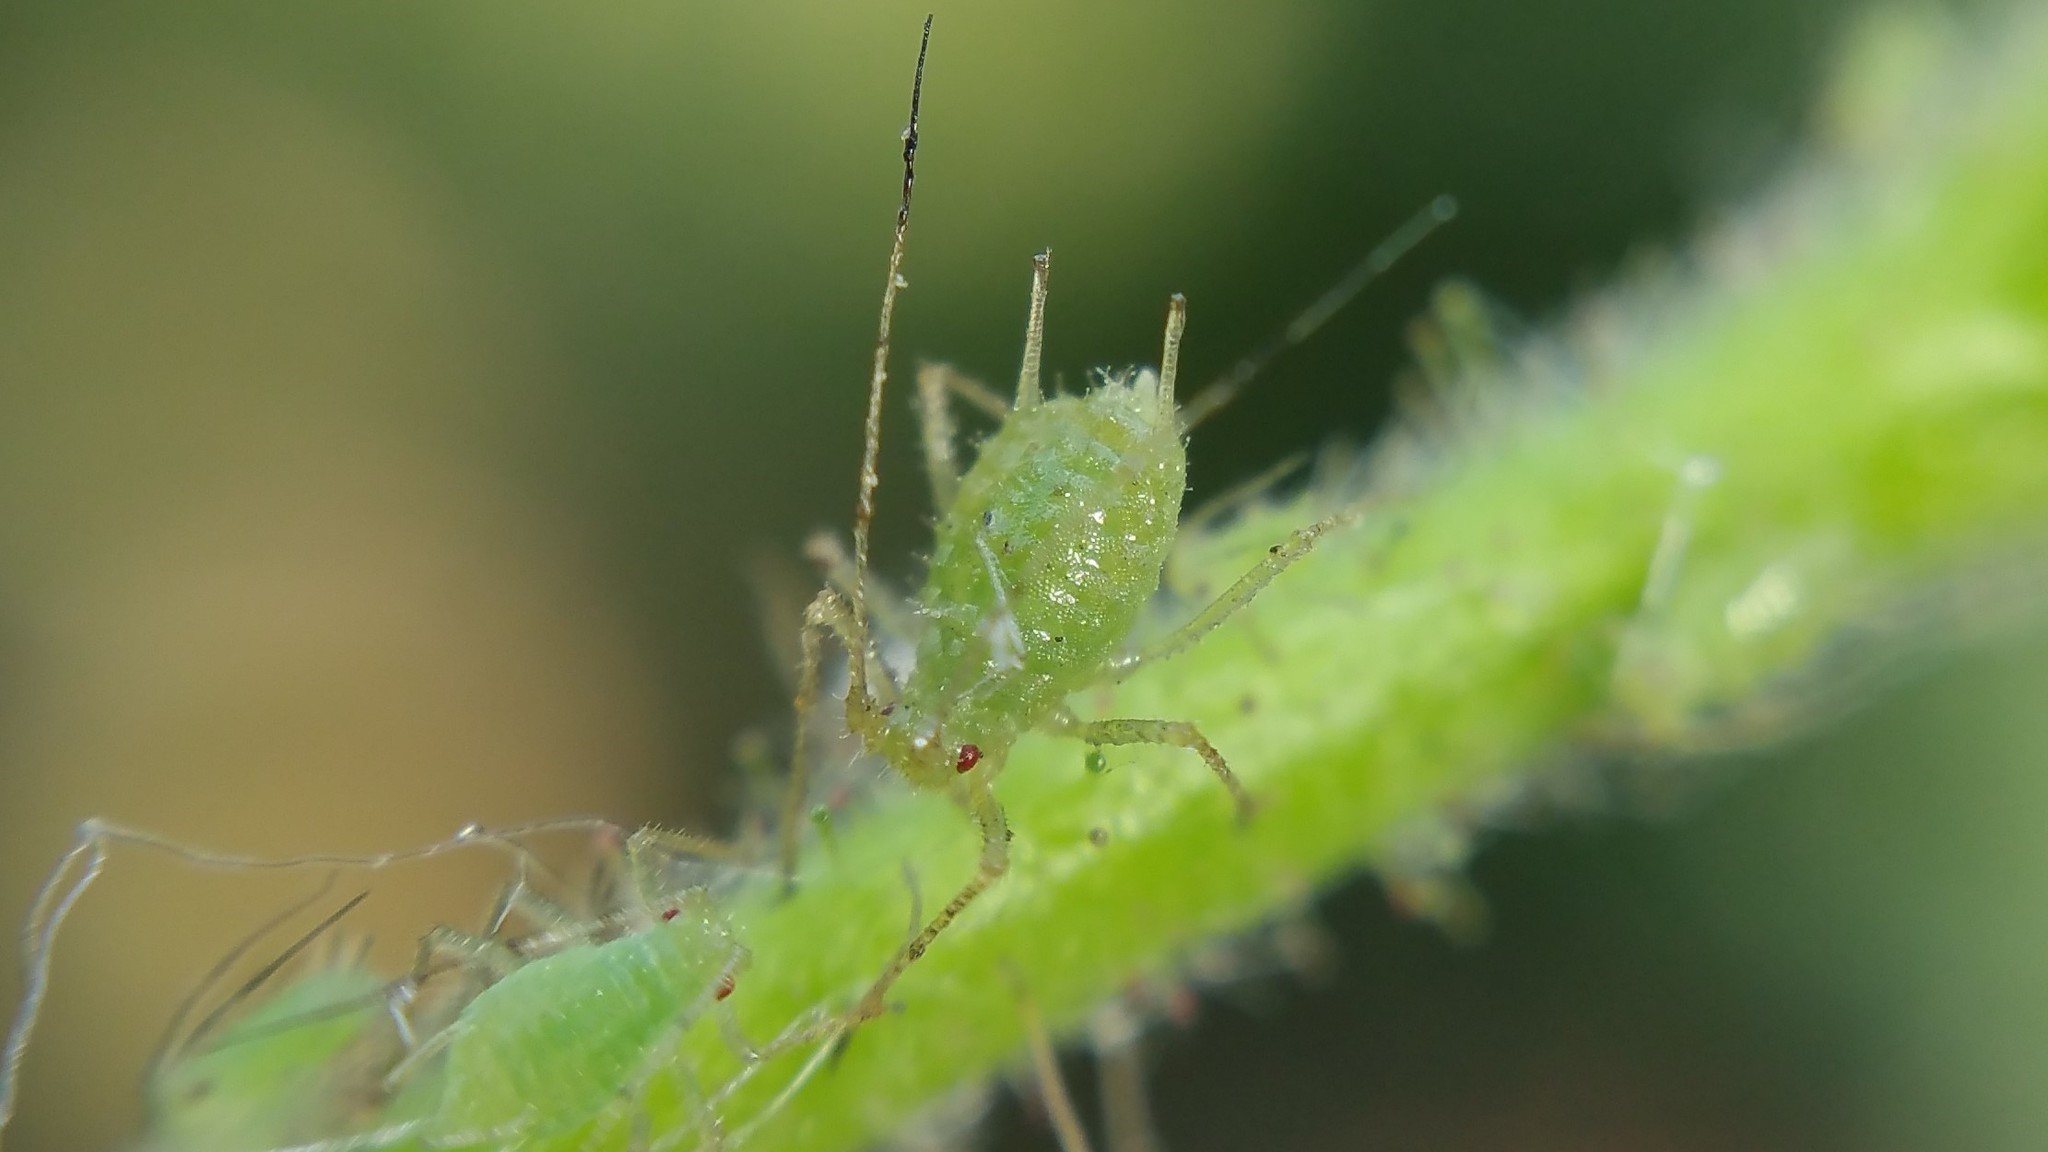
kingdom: Animalia
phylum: Arthropoda
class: Insecta
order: Hemiptera
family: Aphididae
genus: Corylobium
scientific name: Corylobium avellanae
